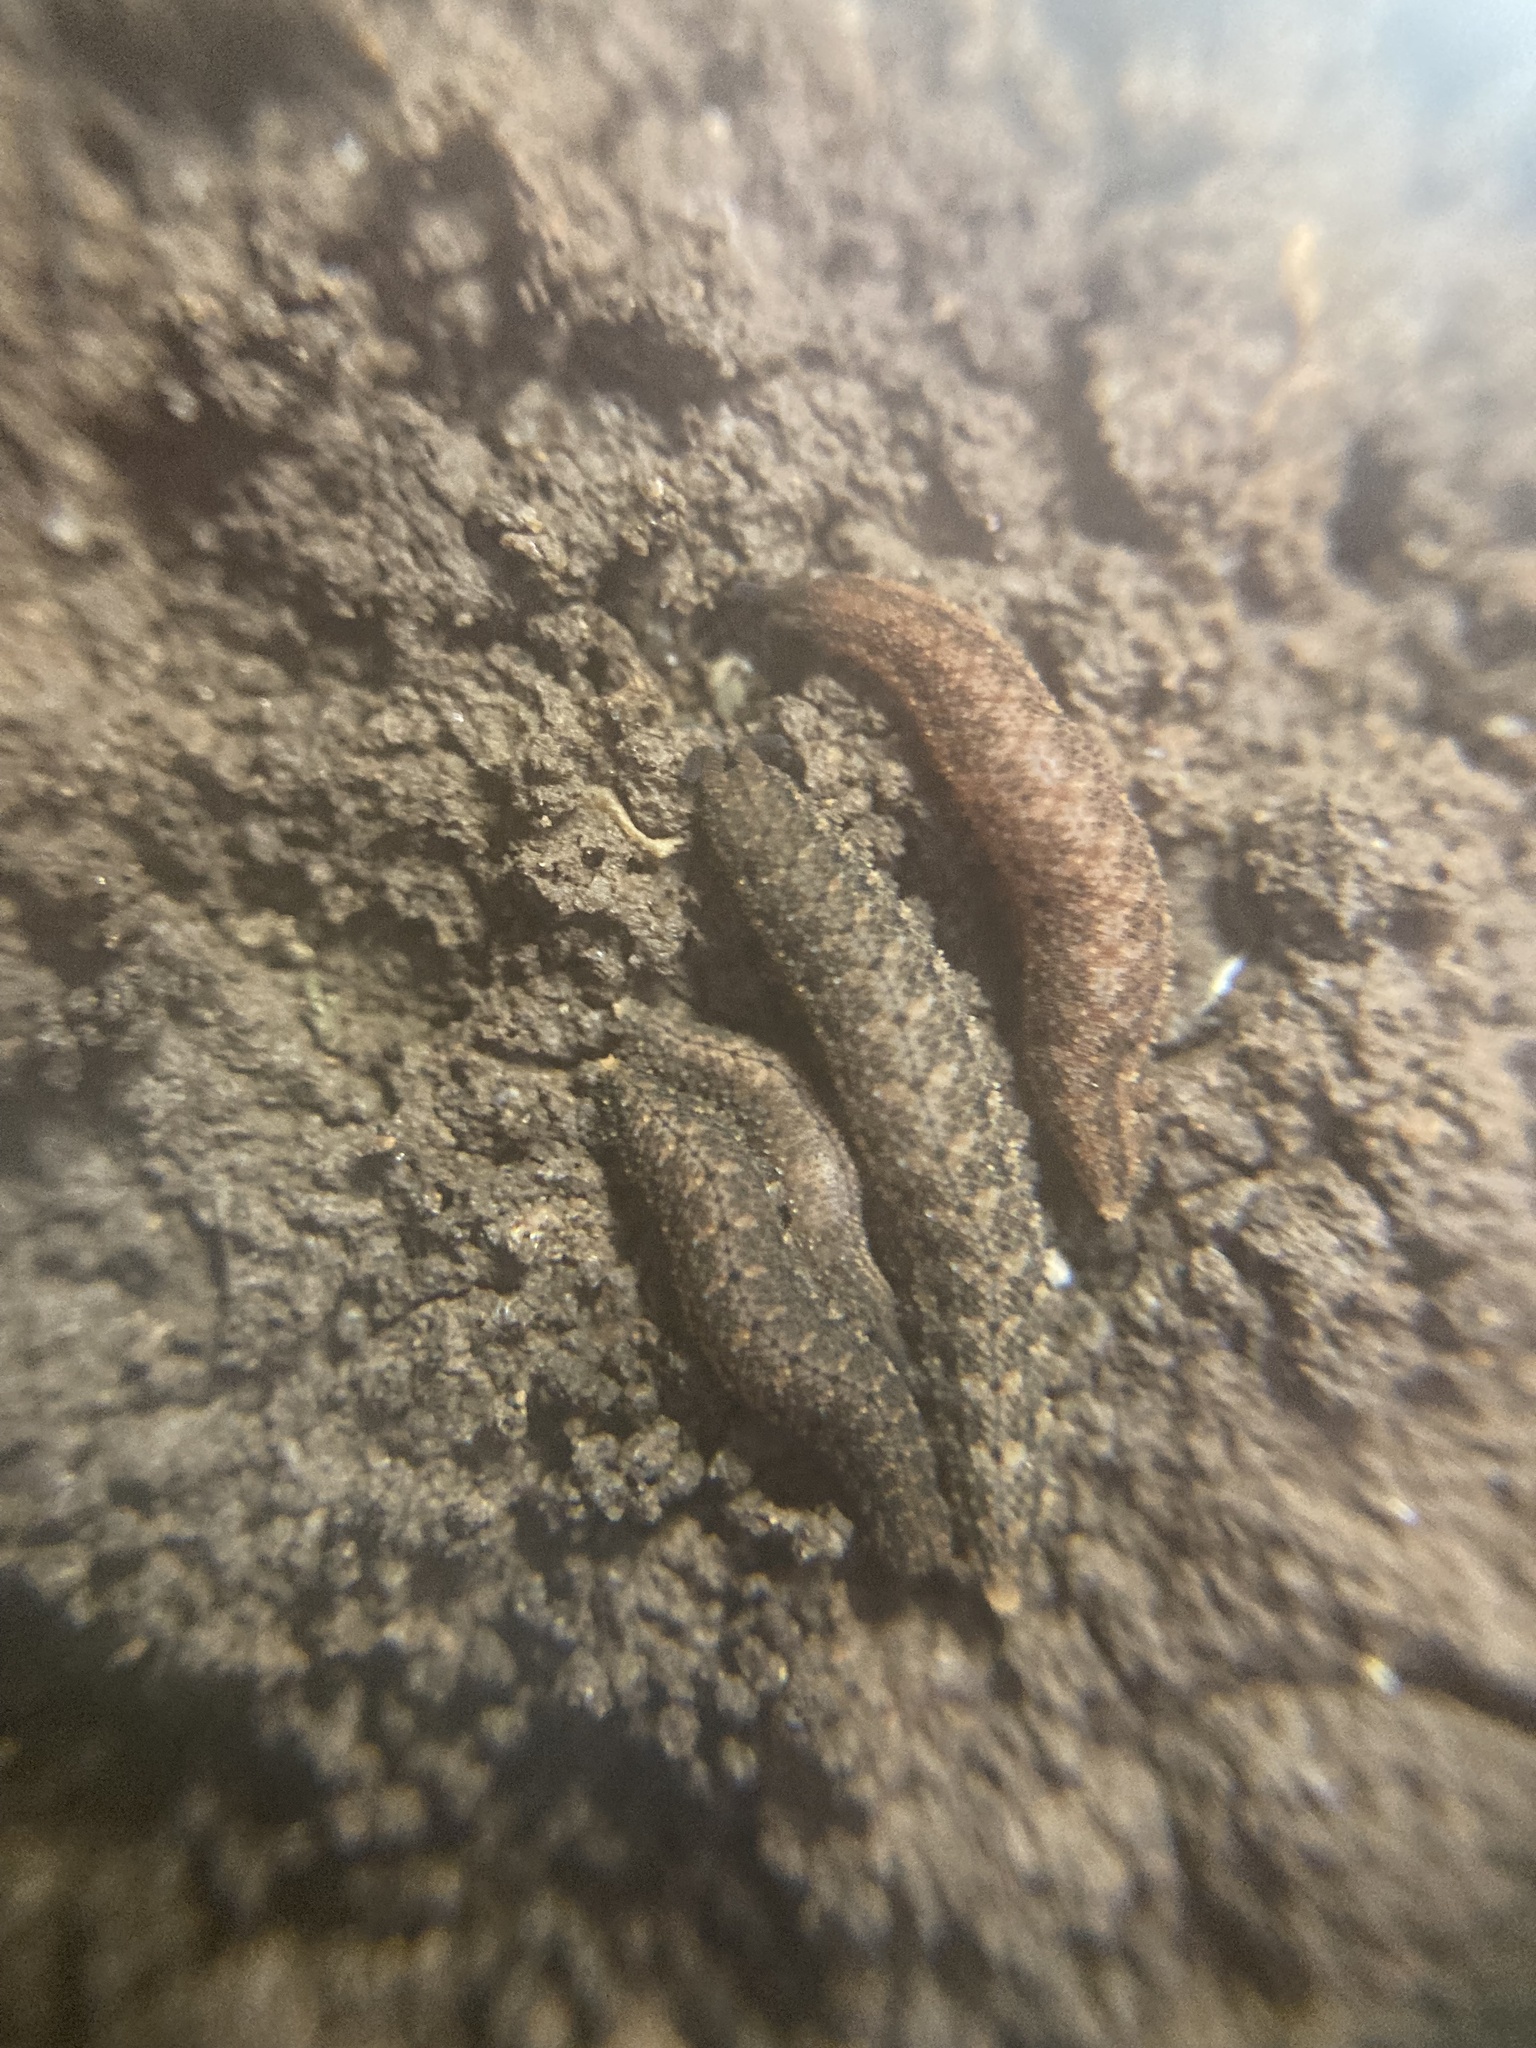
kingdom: Animalia
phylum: Onychophora
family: Peripatopsidae
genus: Anoplokaros
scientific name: Anoplokaros keerensis
